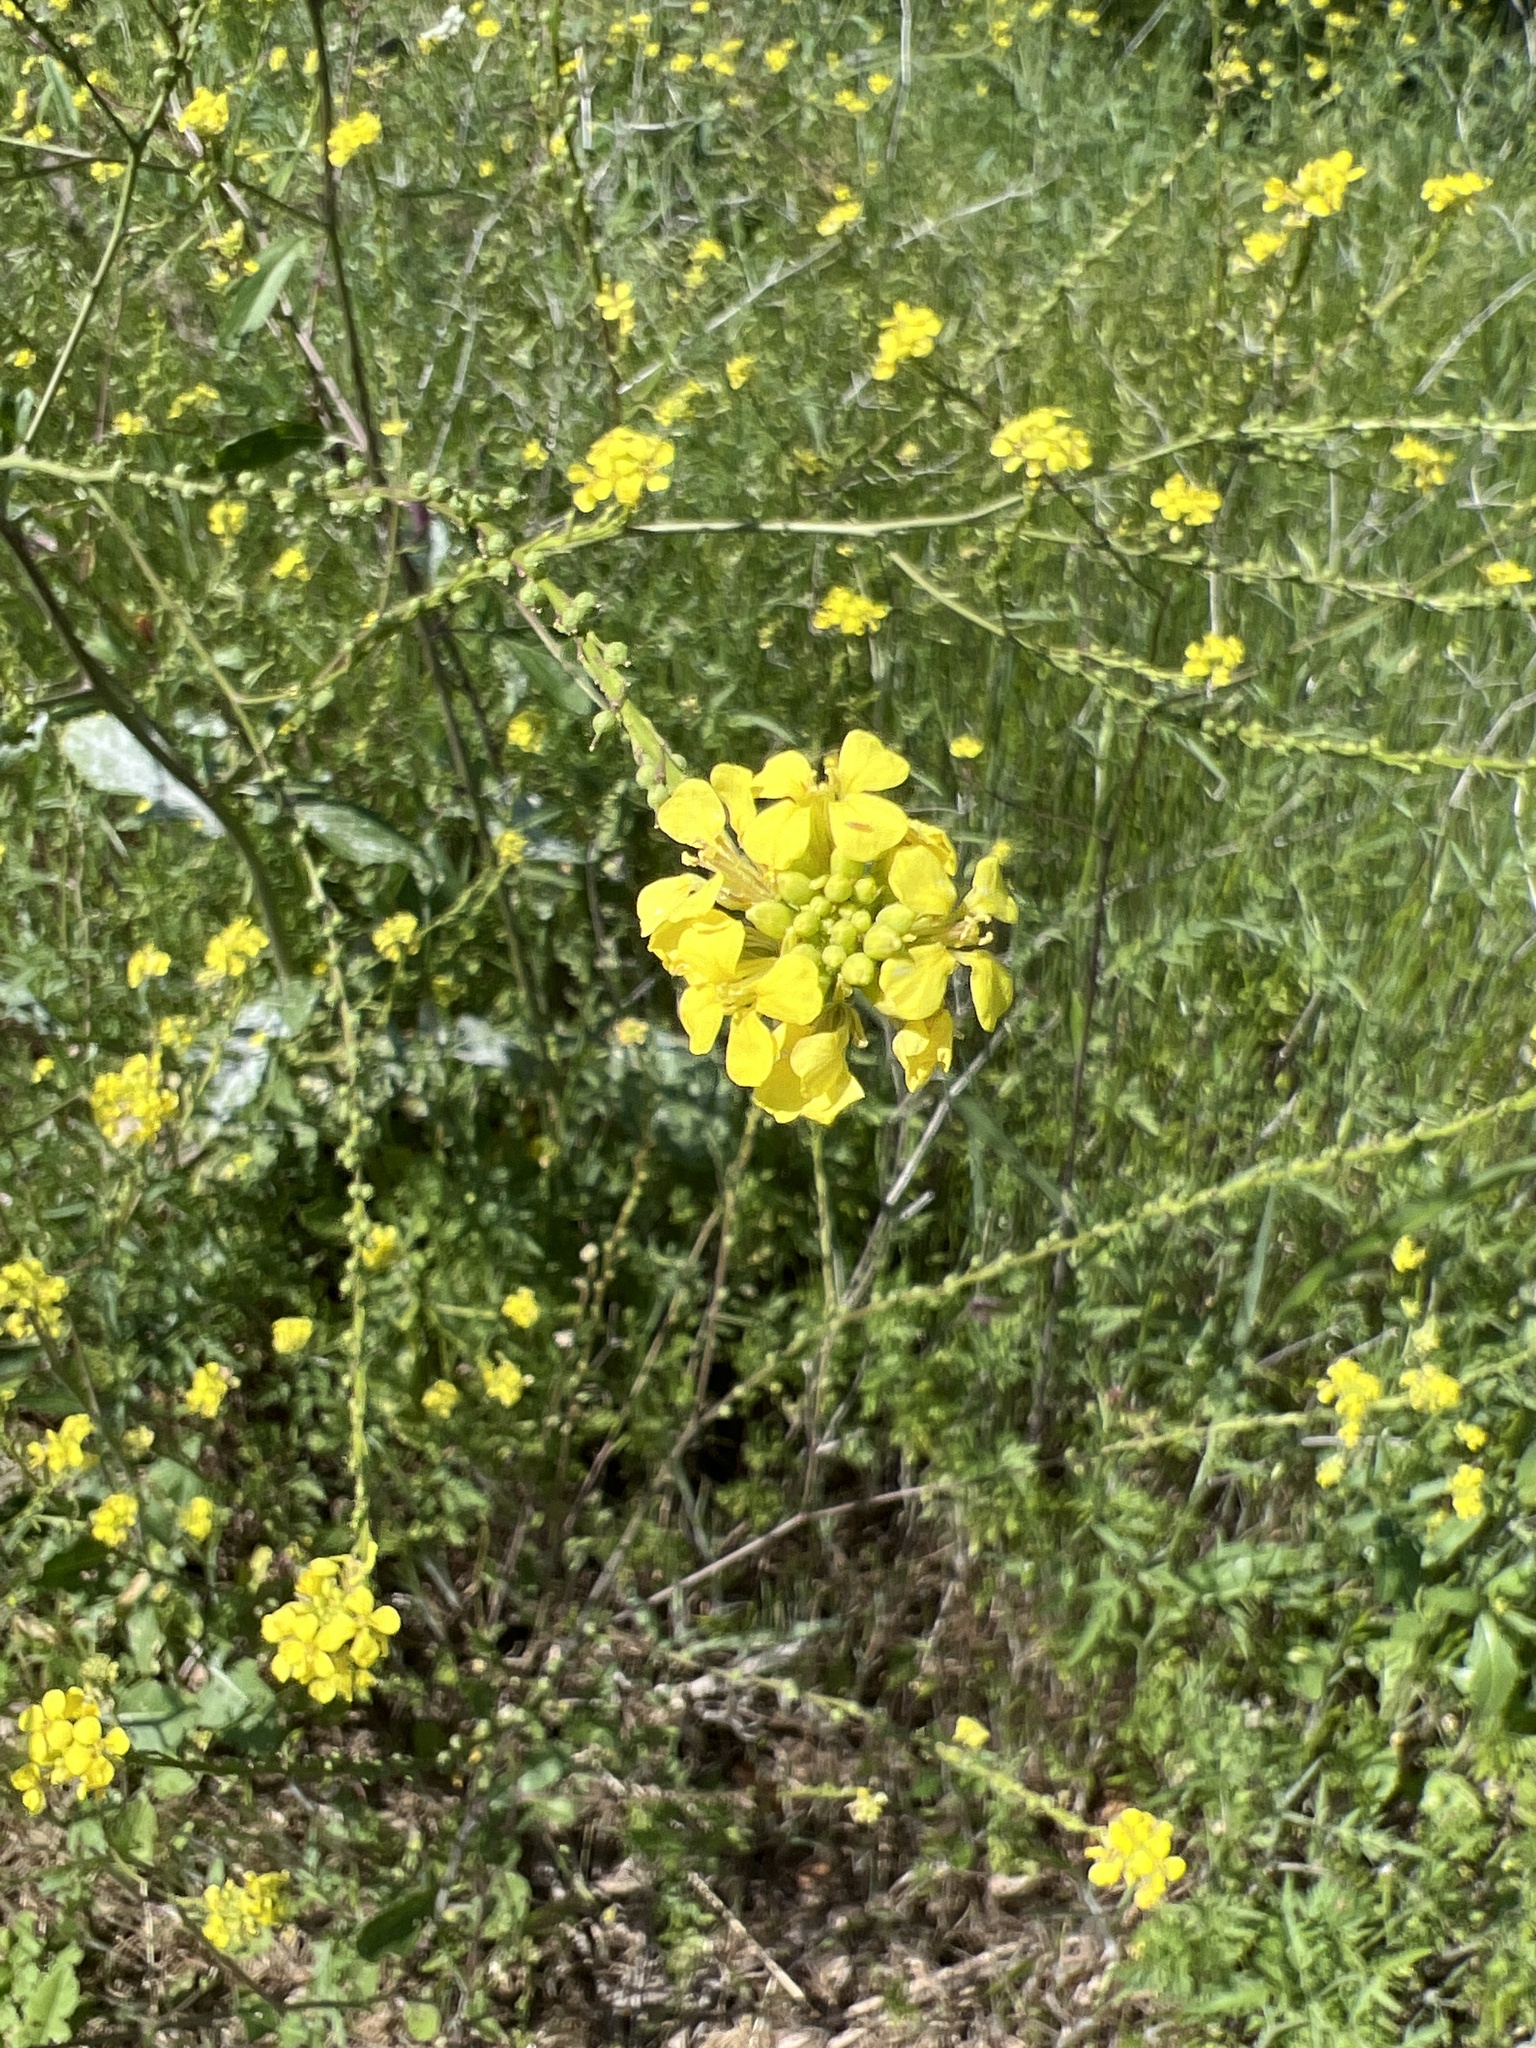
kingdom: Plantae
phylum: Tracheophyta
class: Magnoliopsida
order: Brassicales
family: Brassicaceae
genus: Rapistrum
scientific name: Rapistrum rugosum
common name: Annual bastardcabbage
